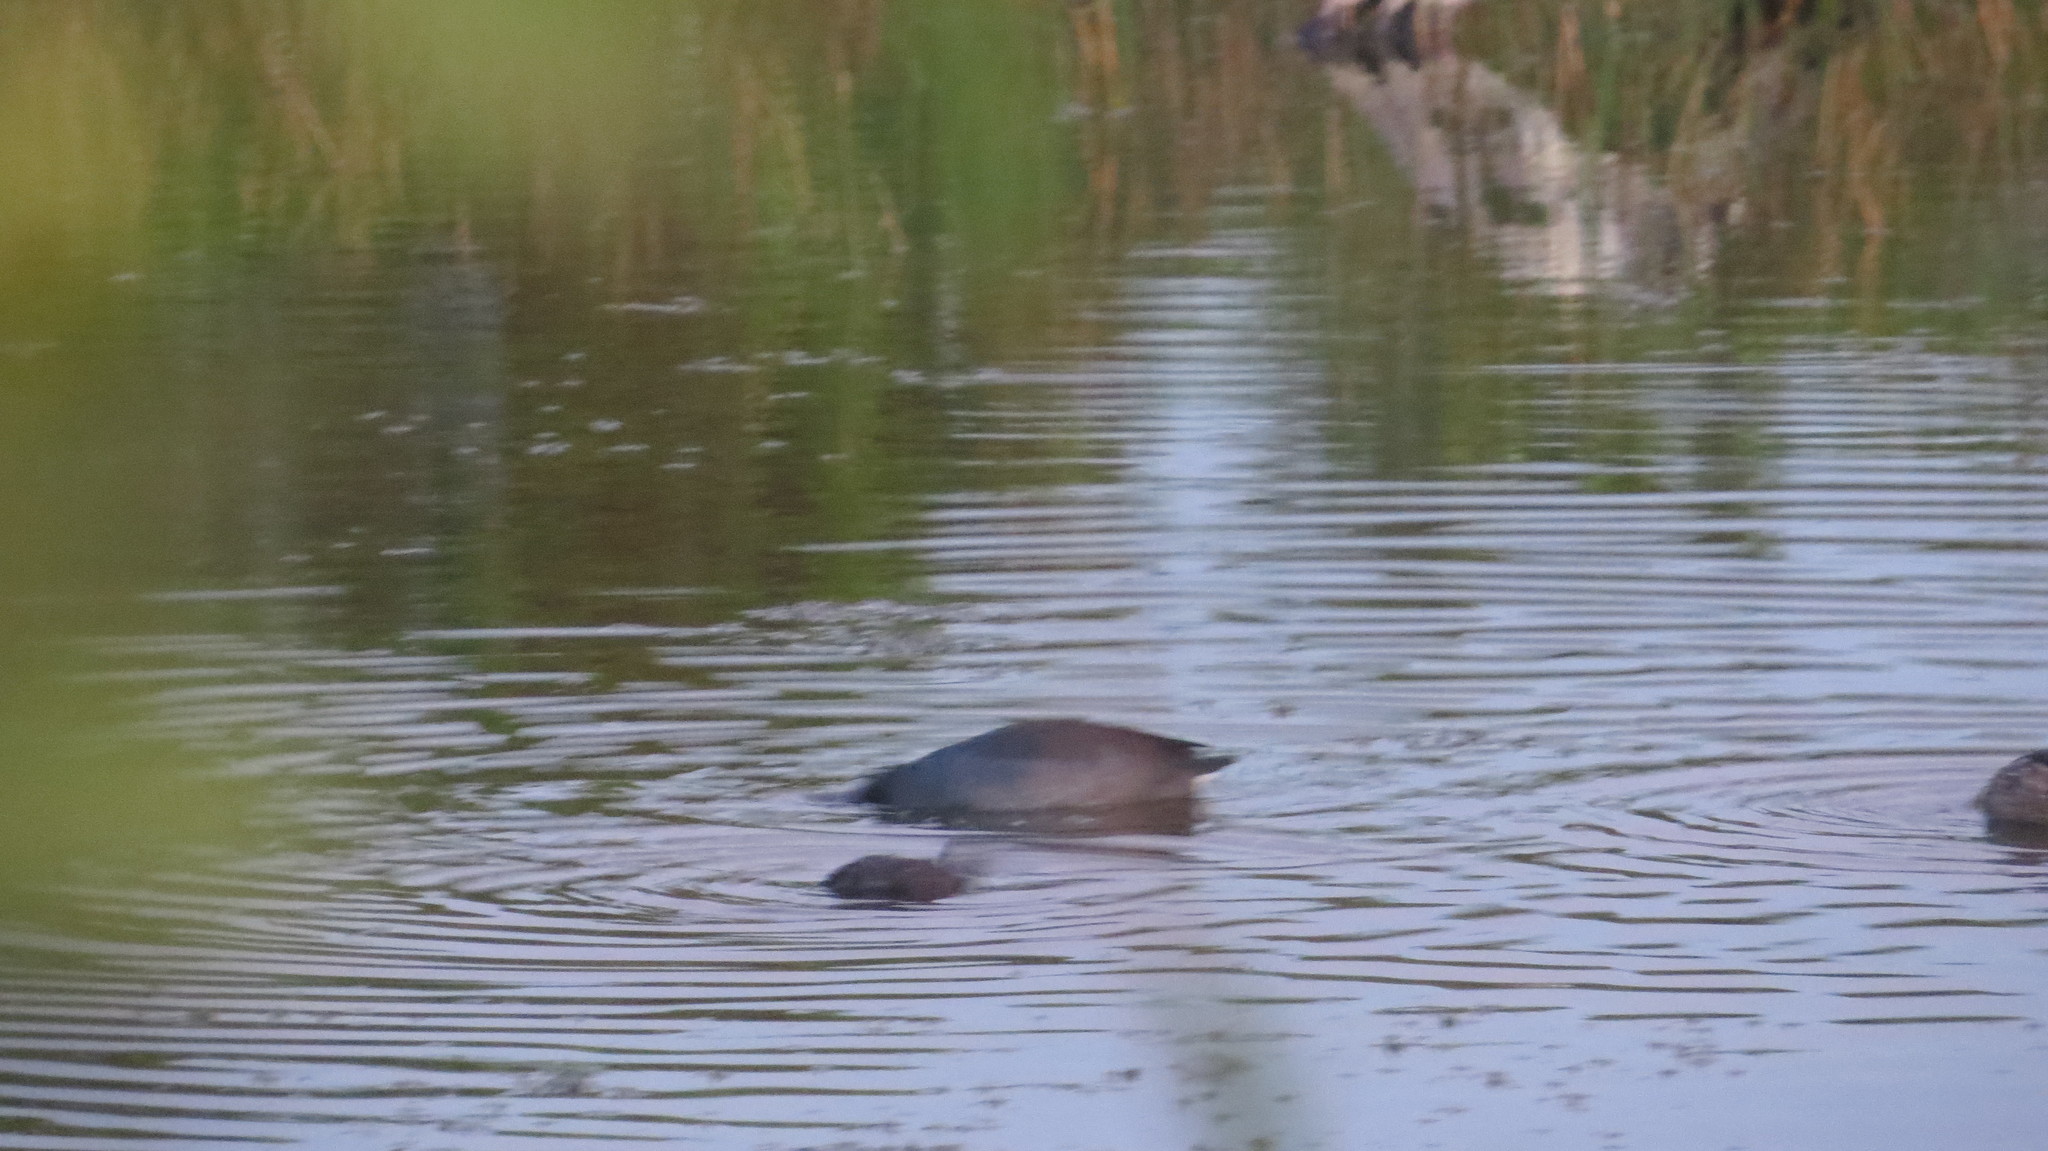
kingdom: Animalia
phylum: Chordata
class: Aves
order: Anseriformes
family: Anatidae
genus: Spatula
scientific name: Spatula discors
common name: Blue-winged teal
